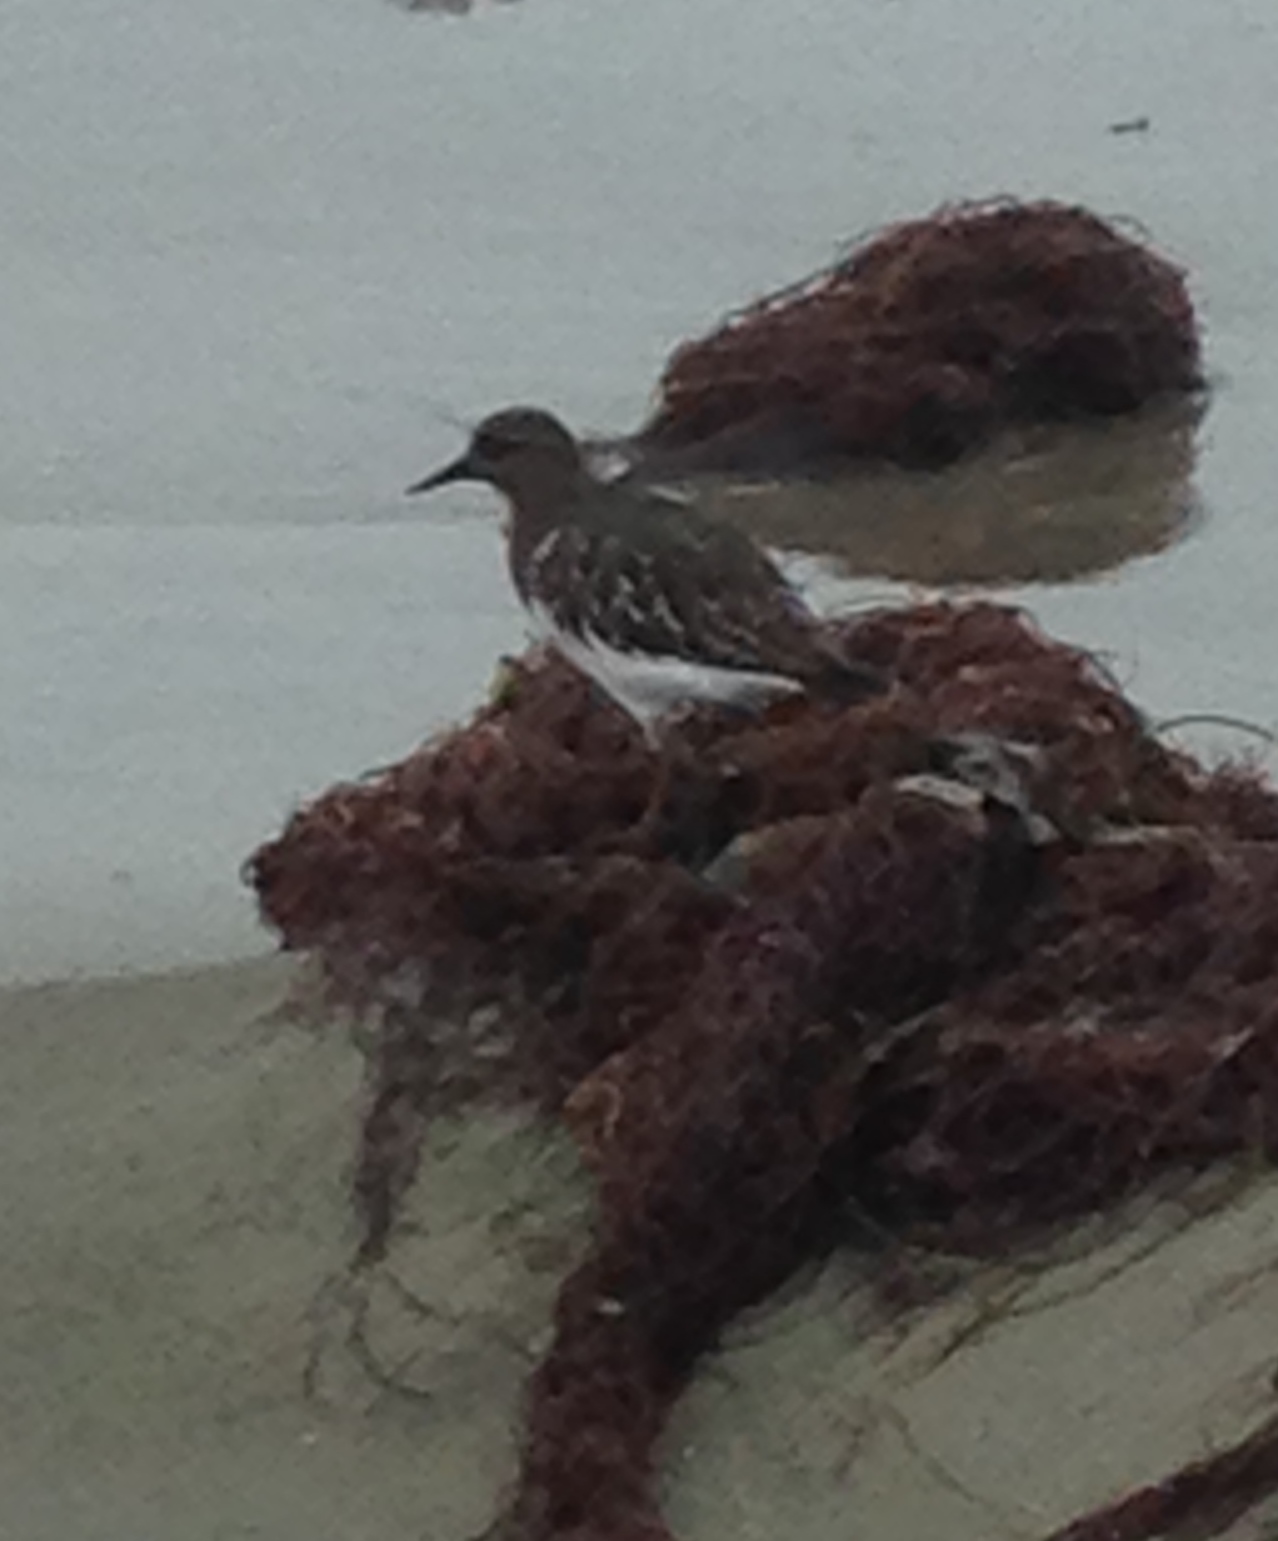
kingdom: Animalia
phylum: Chordata
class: Aves
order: Charadriiformes
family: Scolopacidae
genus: Arenaria
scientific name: Arenaria melanocephala
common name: Black turnstone
